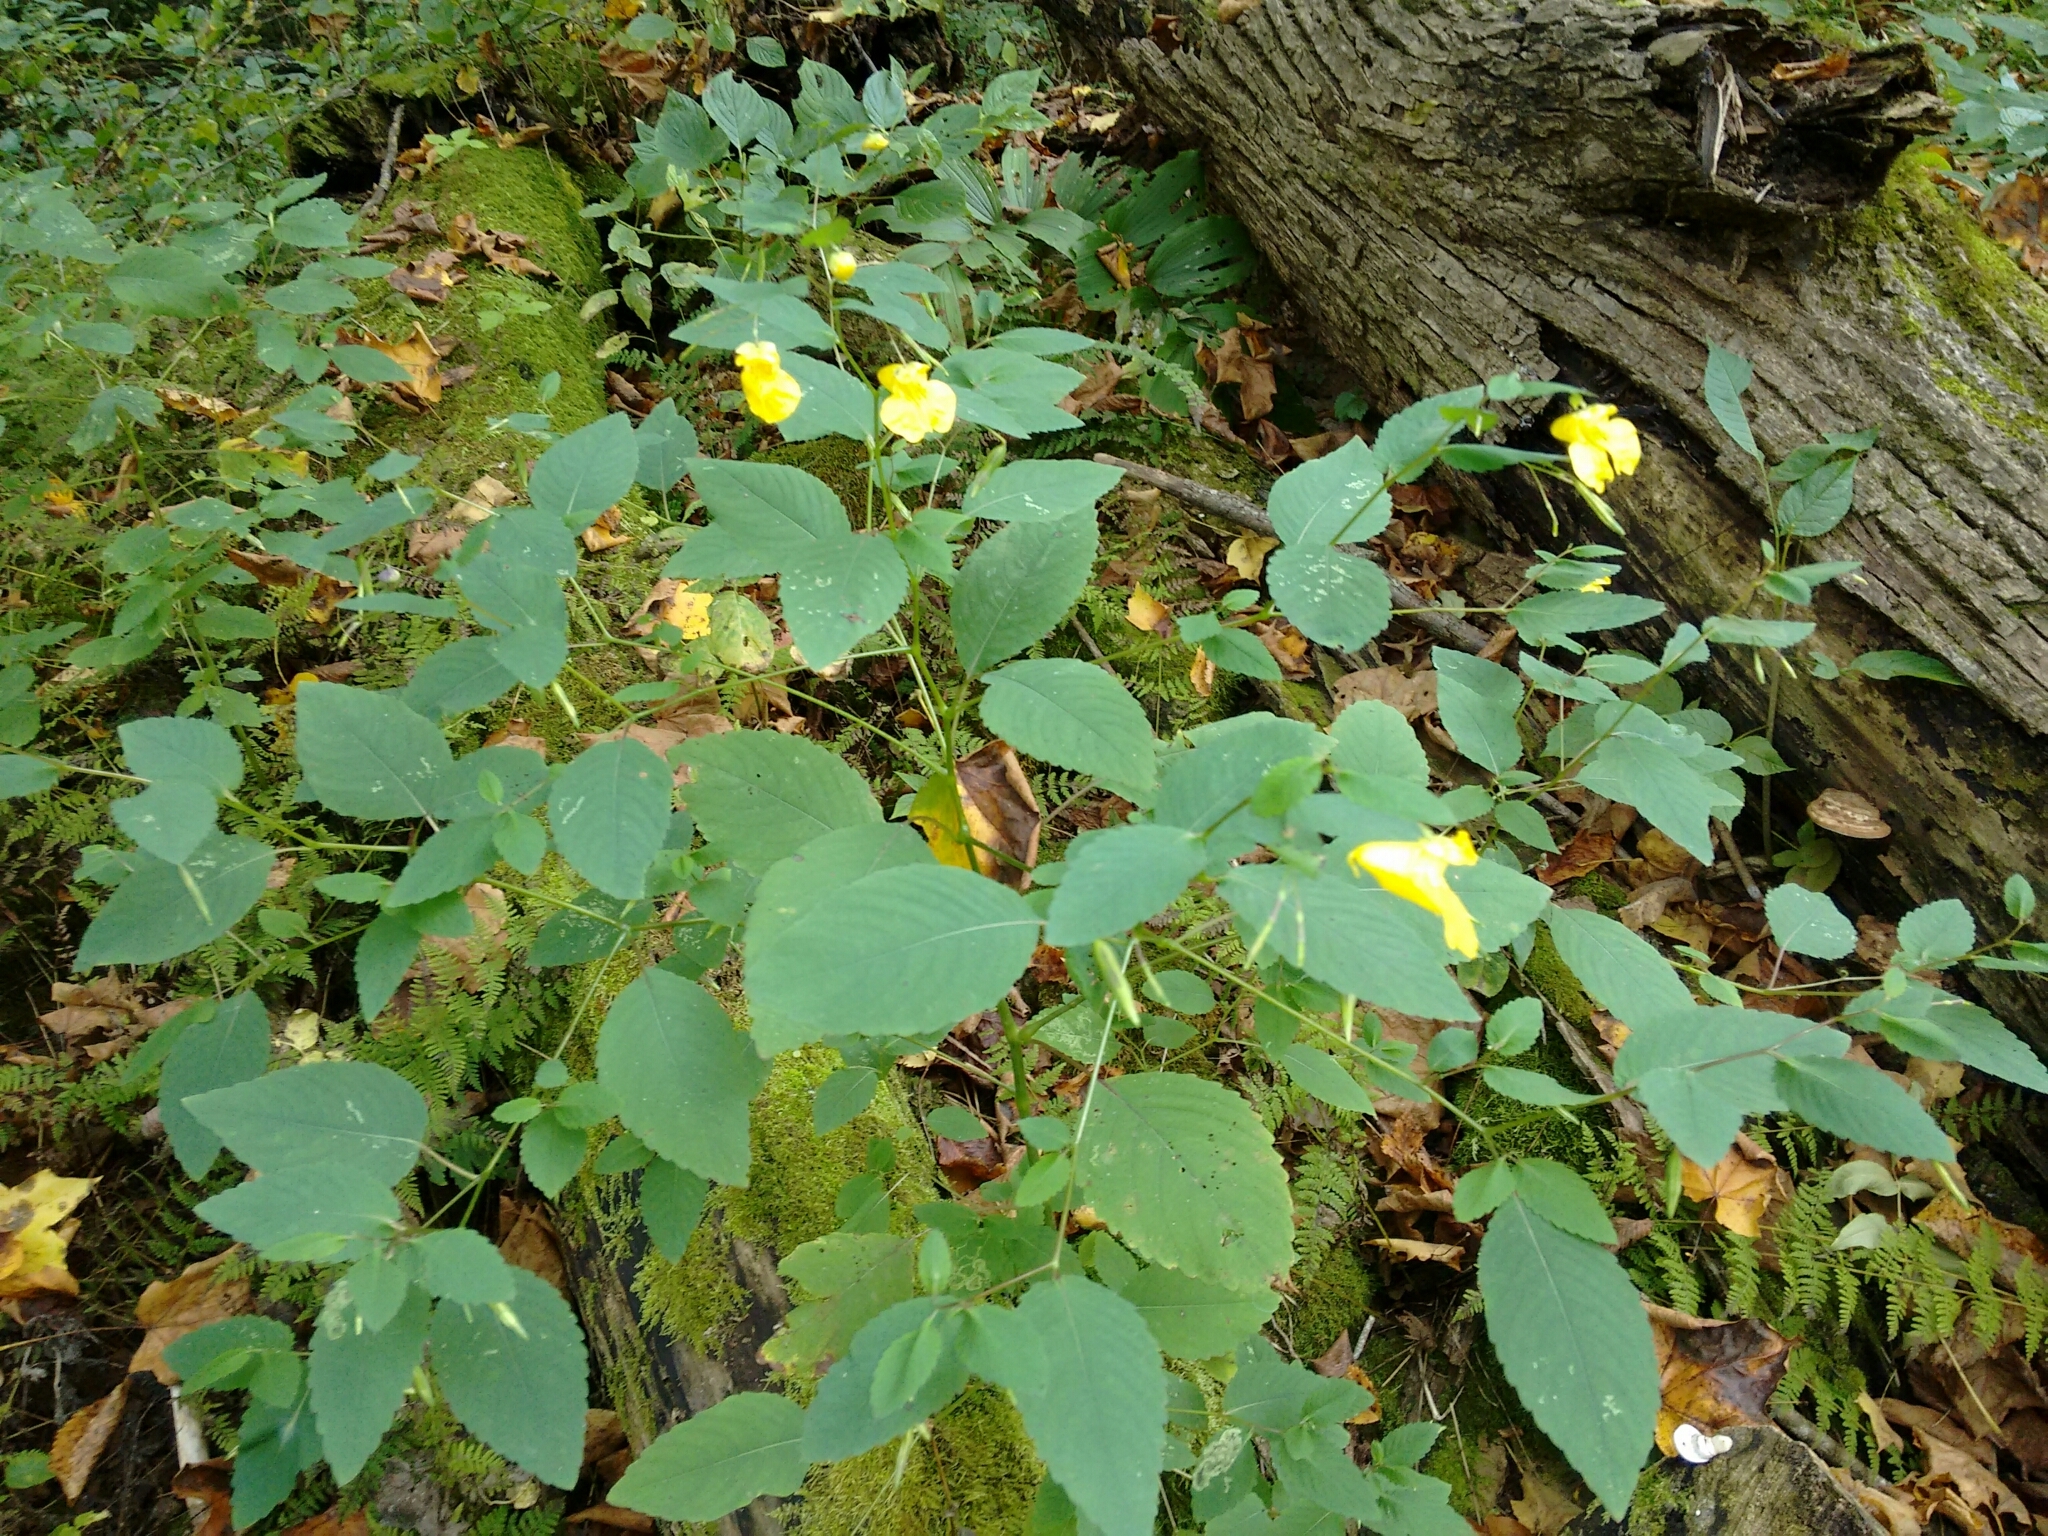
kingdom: Plantae
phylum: Tracheophyta
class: Magnoliopsida
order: Ericales
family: Balsaminaceae
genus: Impatiens
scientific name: Impatiens pallida
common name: Pale snapweed
